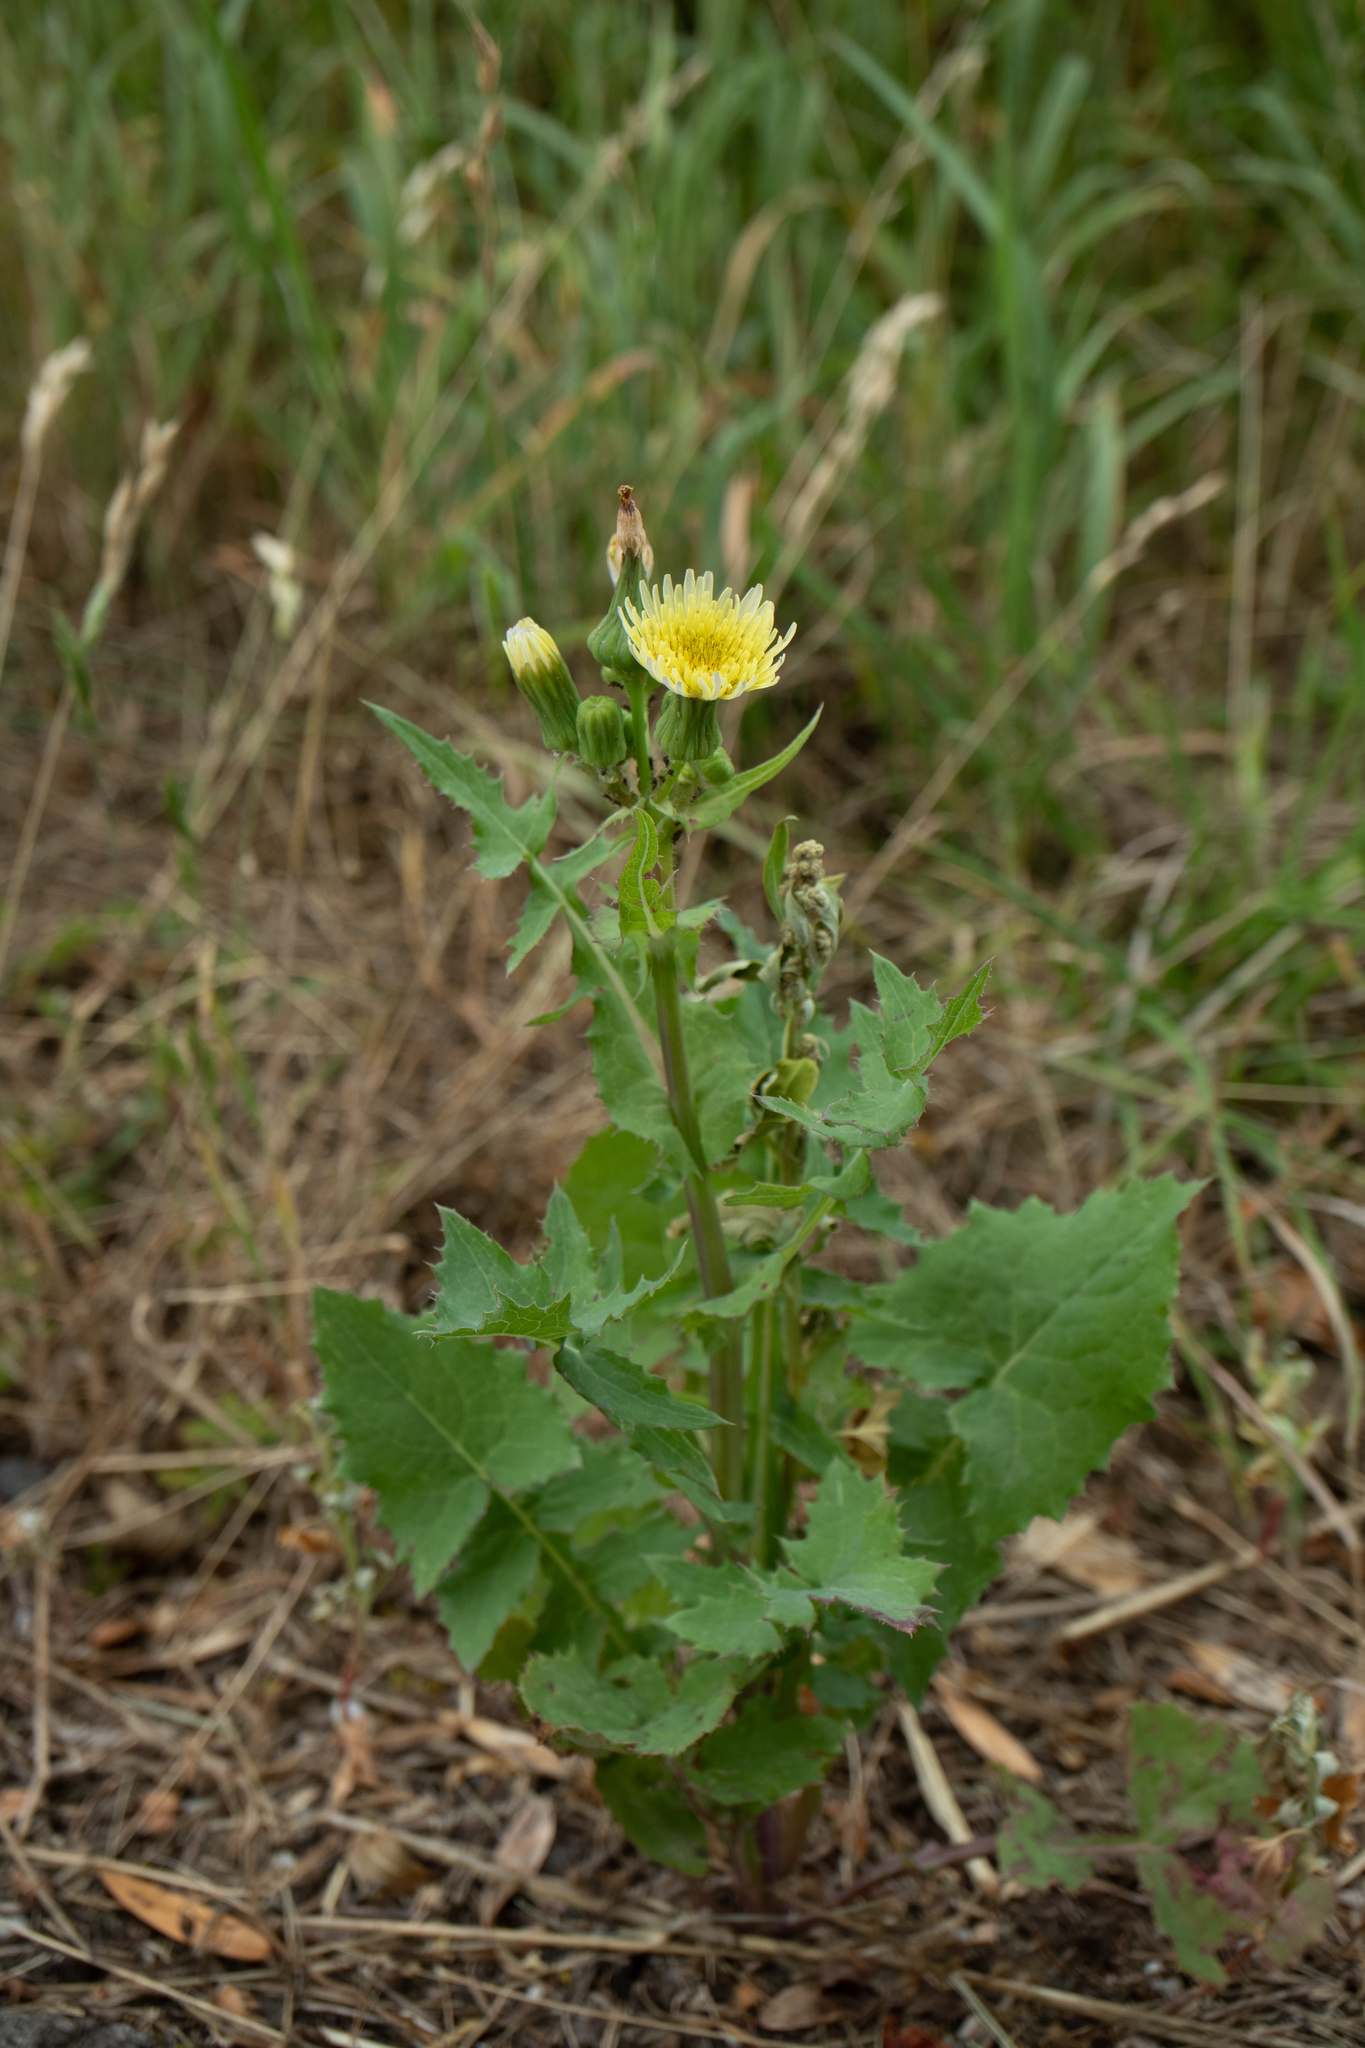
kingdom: Plantae
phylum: Tracheophyta
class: Magnoliopsida
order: Asterales
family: Asteraceae
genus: Sonchus
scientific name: Sonchus oleraceus
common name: Common sowthistle
